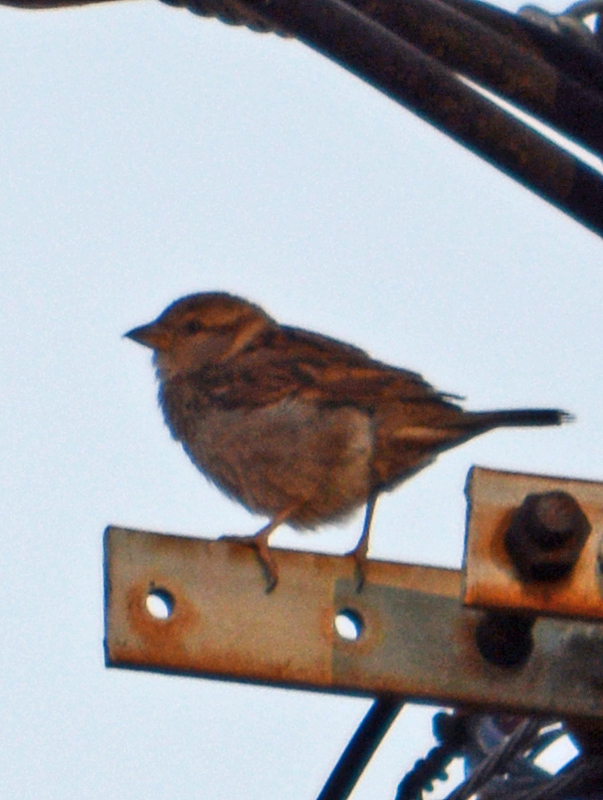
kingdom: Animalia
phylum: Chordata
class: Aves
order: Passeriformes
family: Passeridae
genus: Passer
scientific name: Passer domesticus
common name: House sparrow
